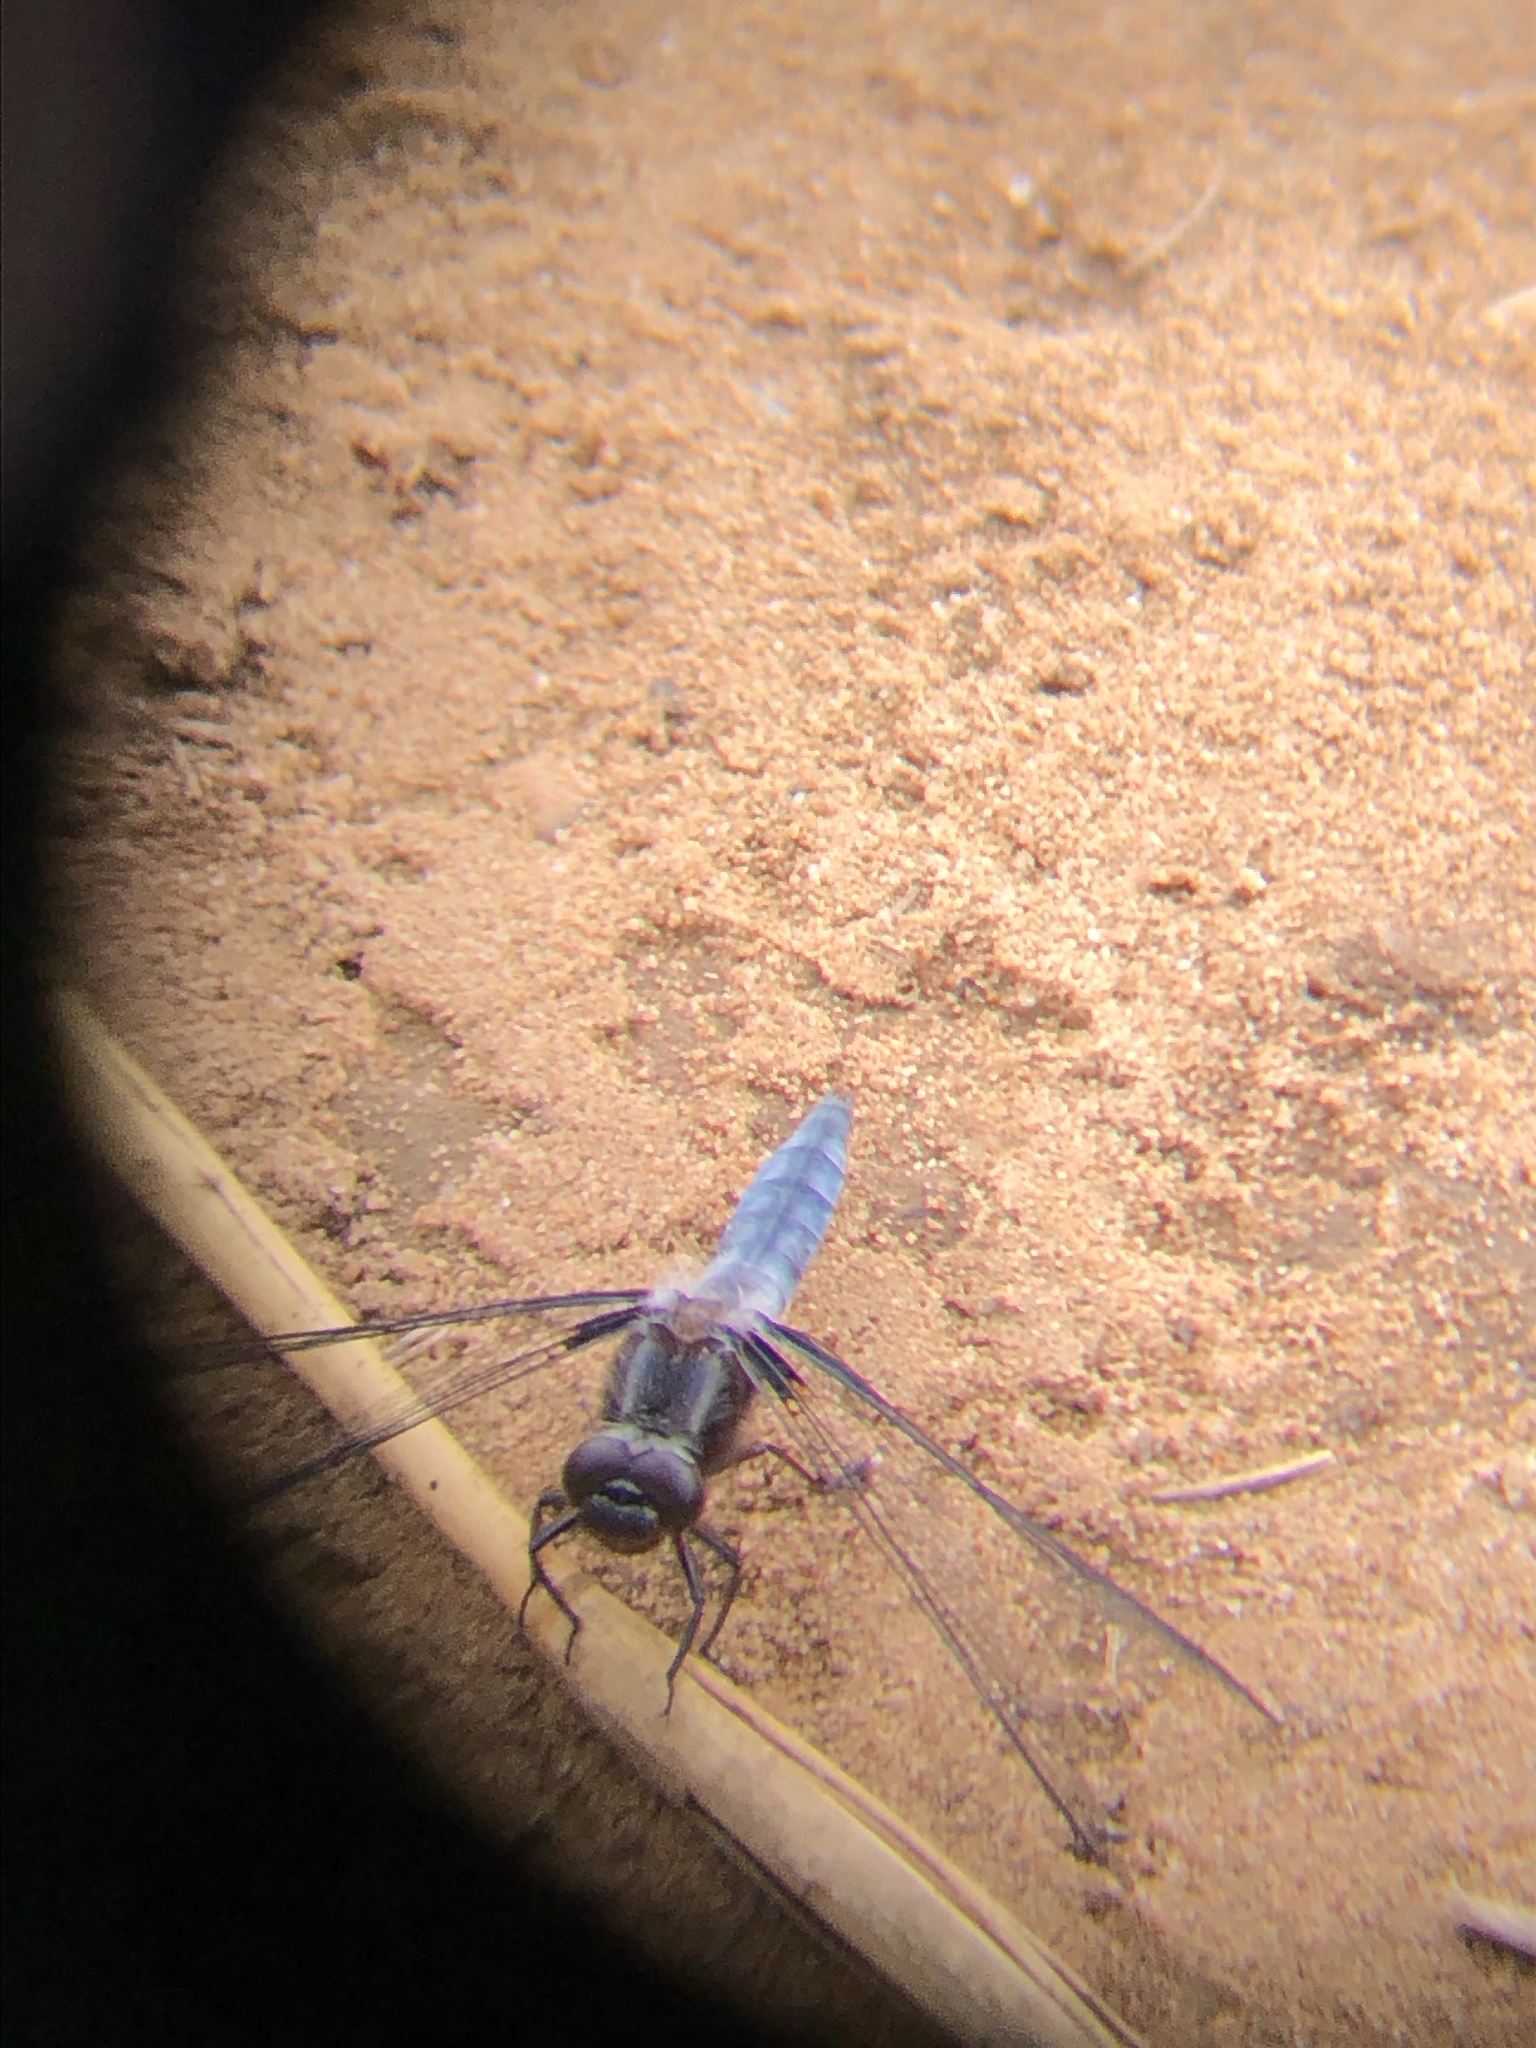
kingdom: Animalia
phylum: Arthropoda
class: Insecta
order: Odonata
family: Libellulidae
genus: Ladona
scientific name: Ladona deplanata
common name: Blue corporal
